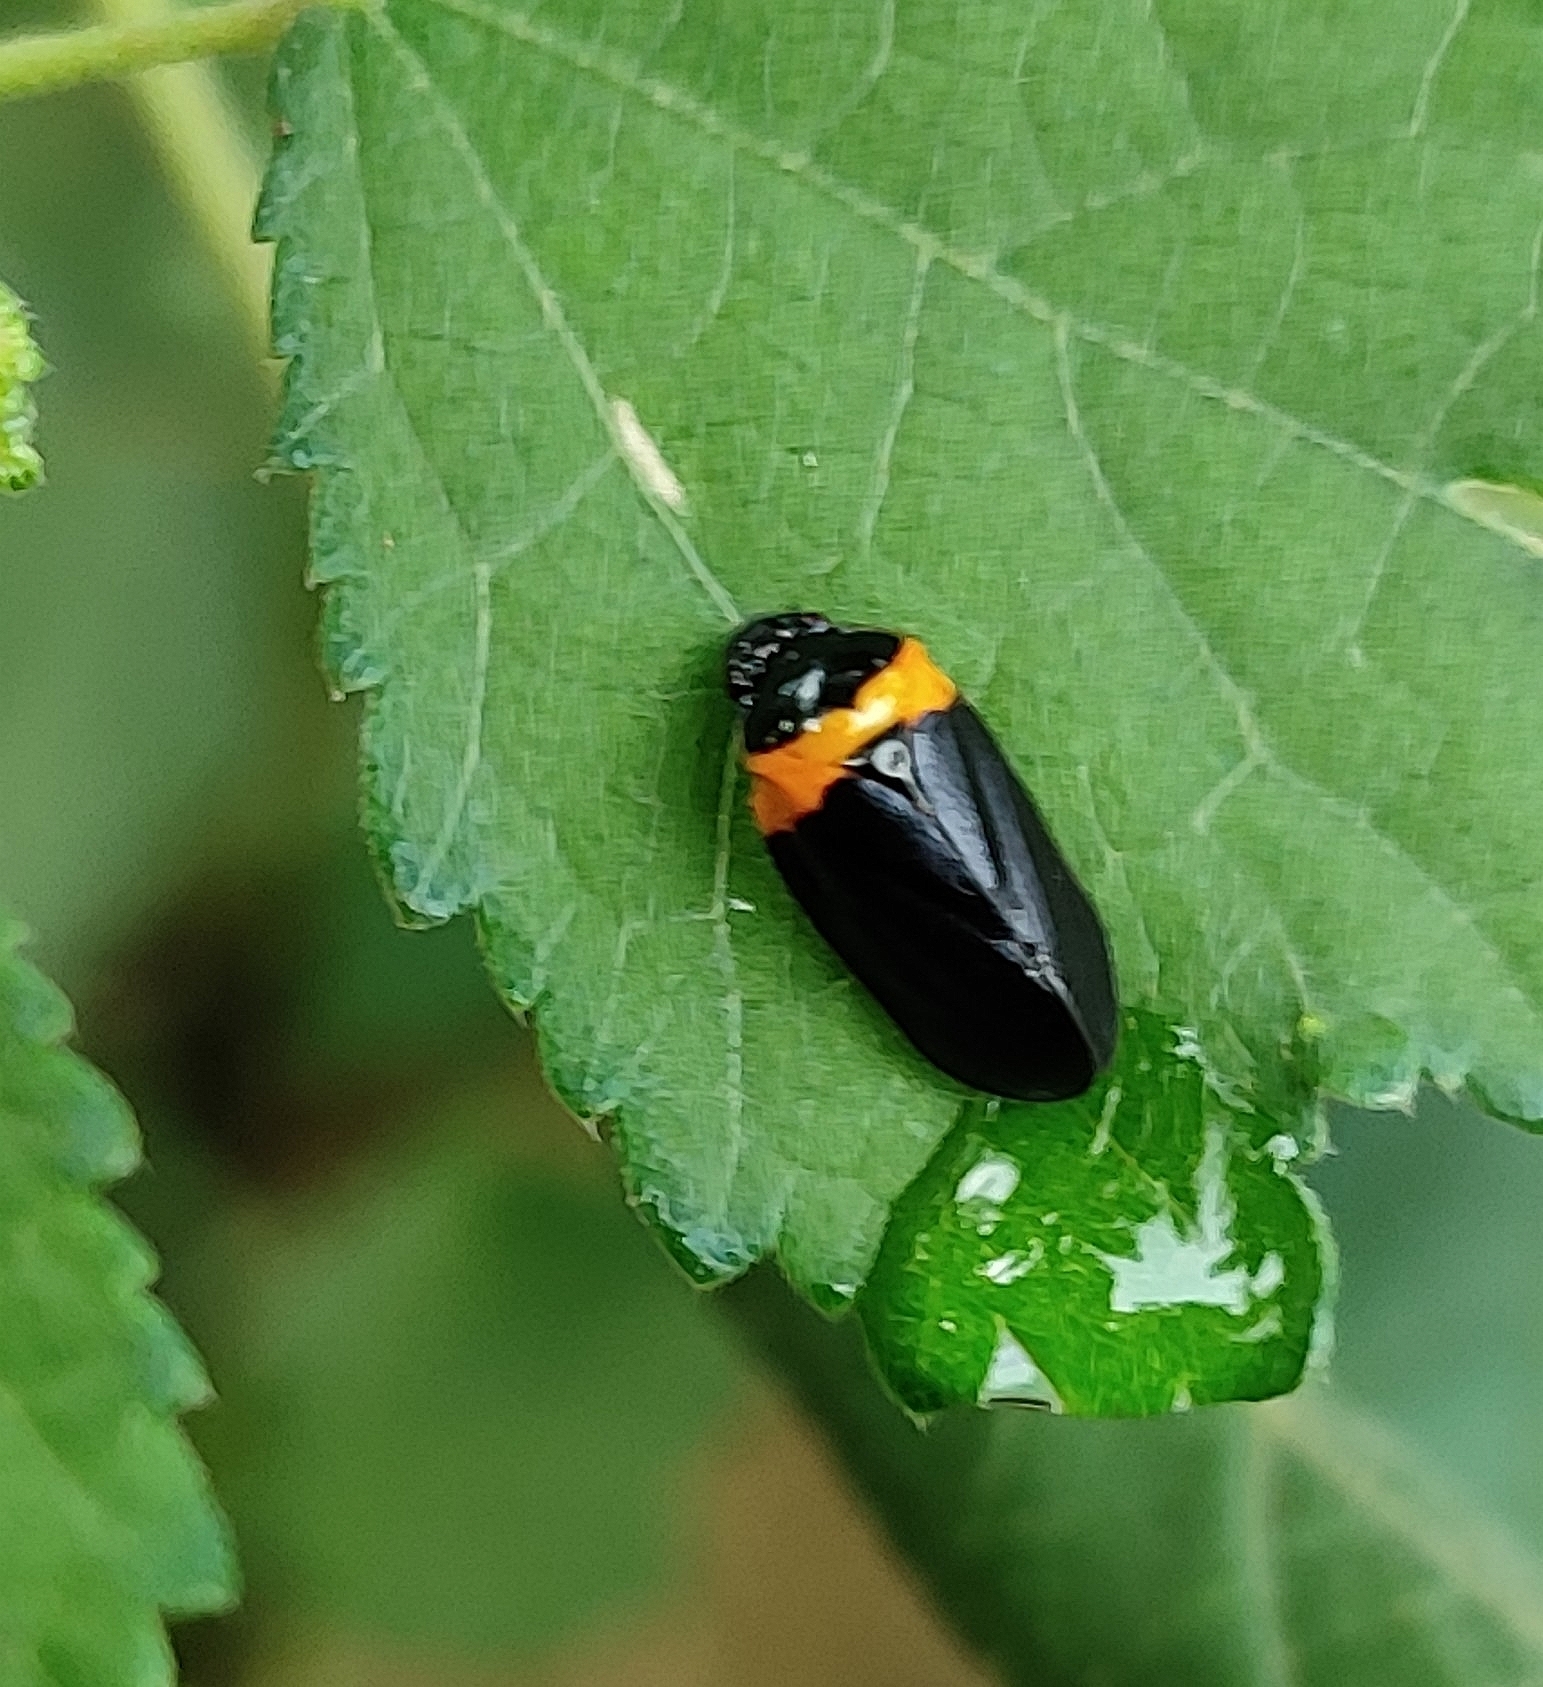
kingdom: Animalia
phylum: Arthropoda
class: Insecta
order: Hemiptera
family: Cercopidae
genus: Phymatostetha
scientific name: Phymatostetha deschampsi
